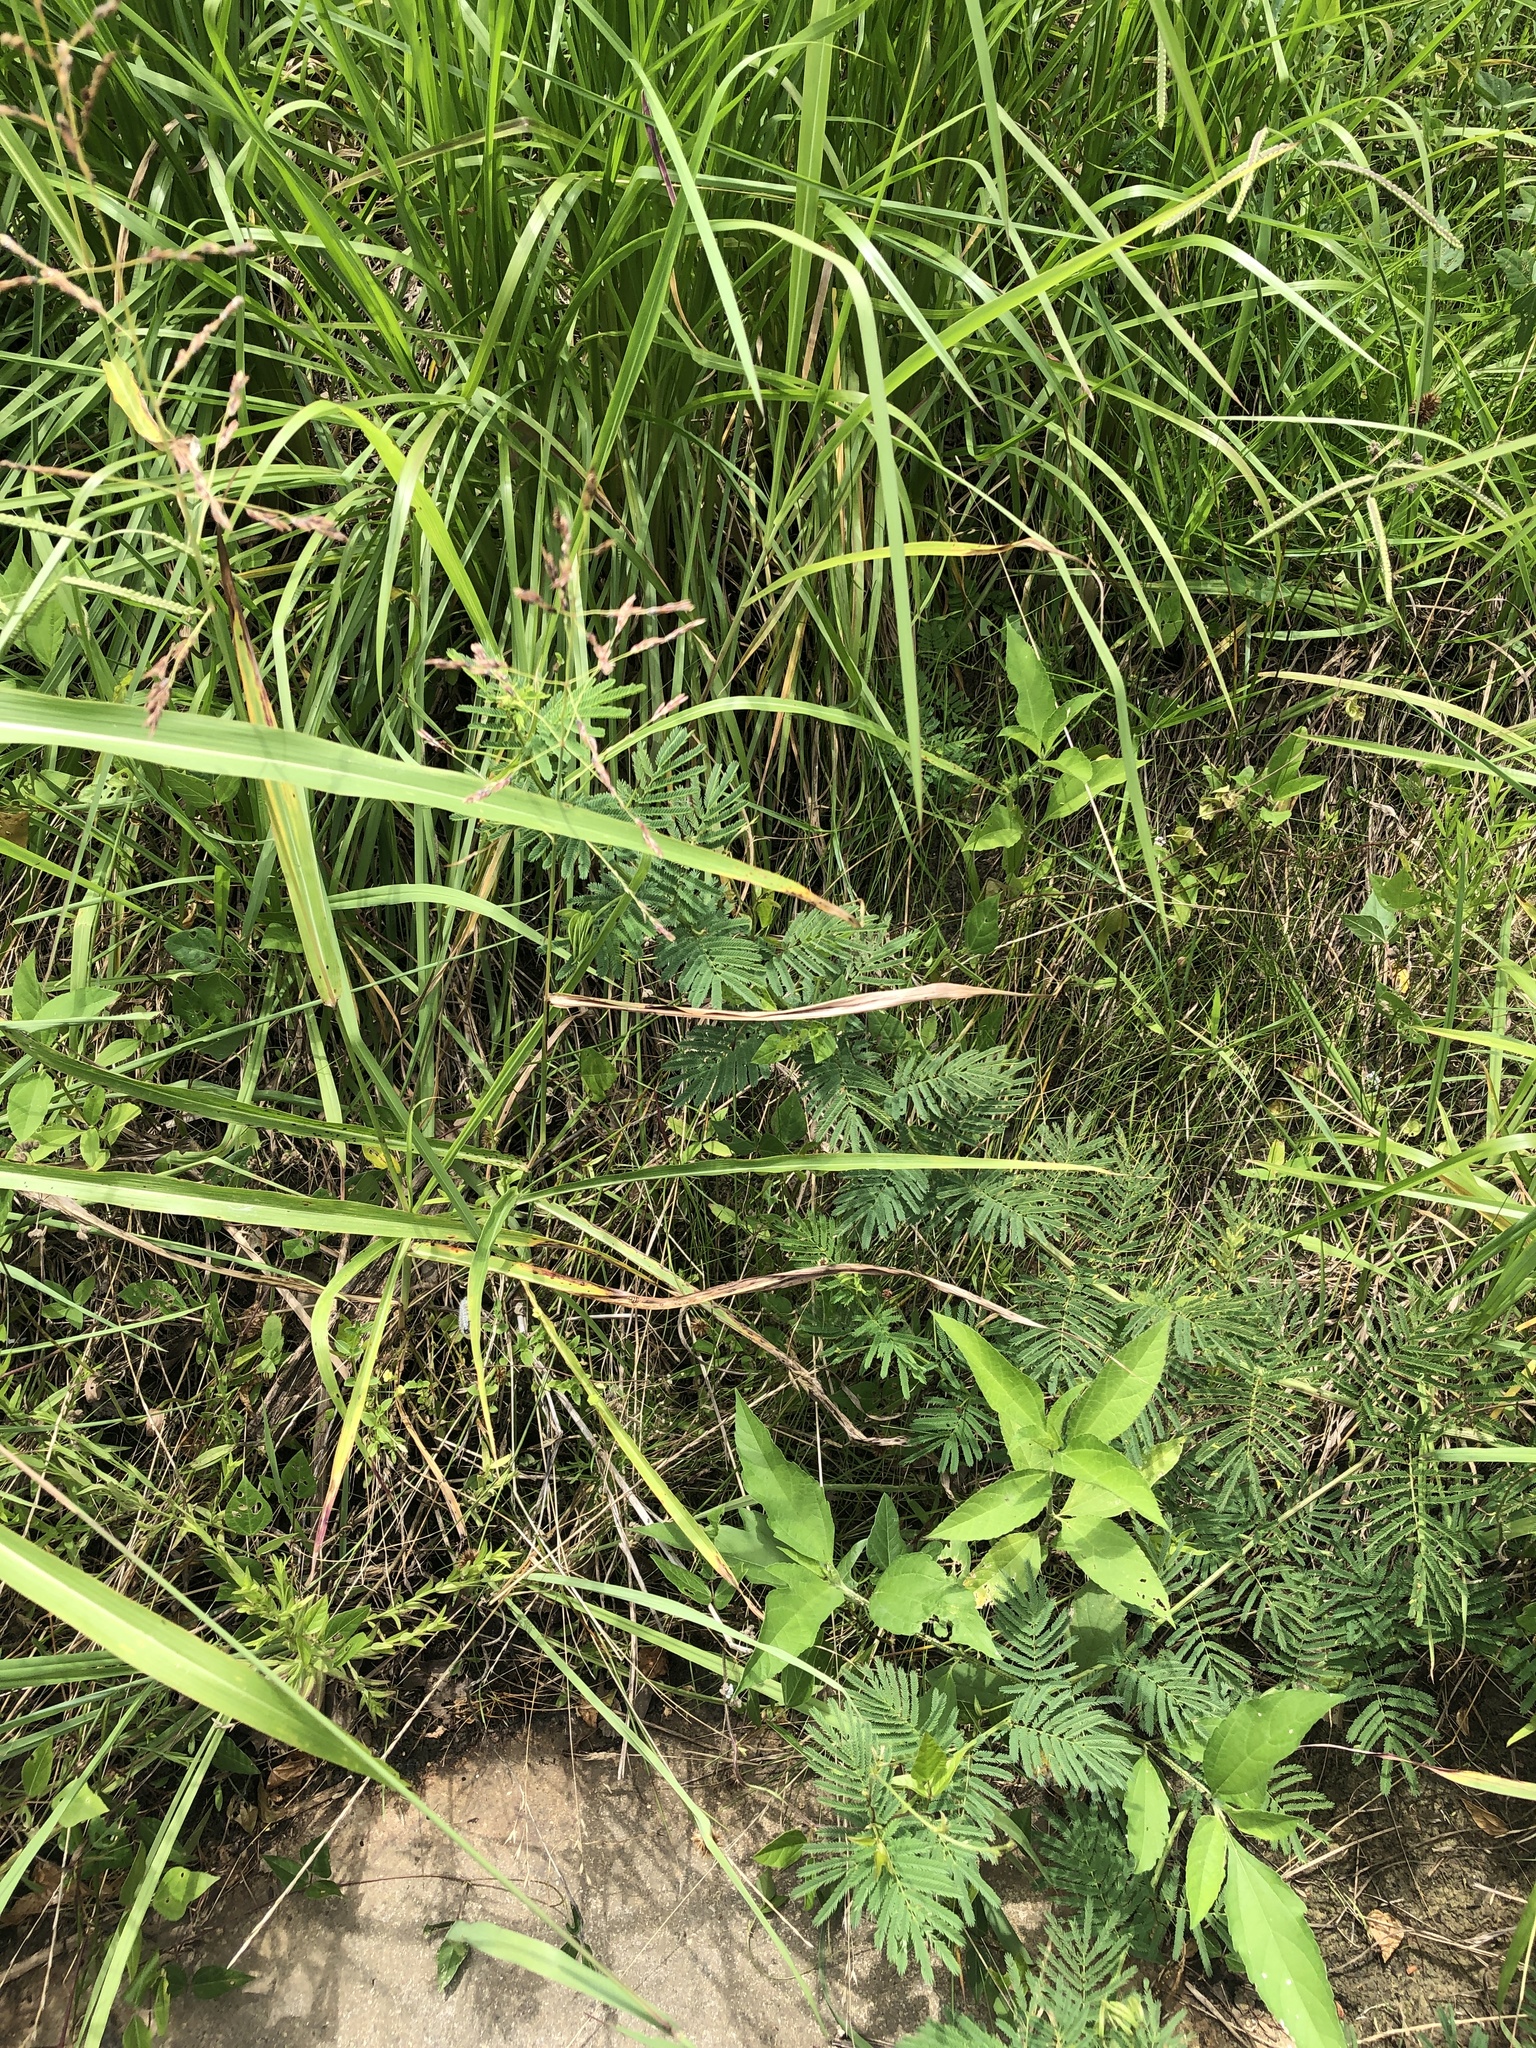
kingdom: Plantae
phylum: Tracheophyta
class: Magnoliopsida
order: Fabales
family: Fabaceae
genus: Desmanthus
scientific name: Desmanthus illinoensis
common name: Illinois bundle-flower
